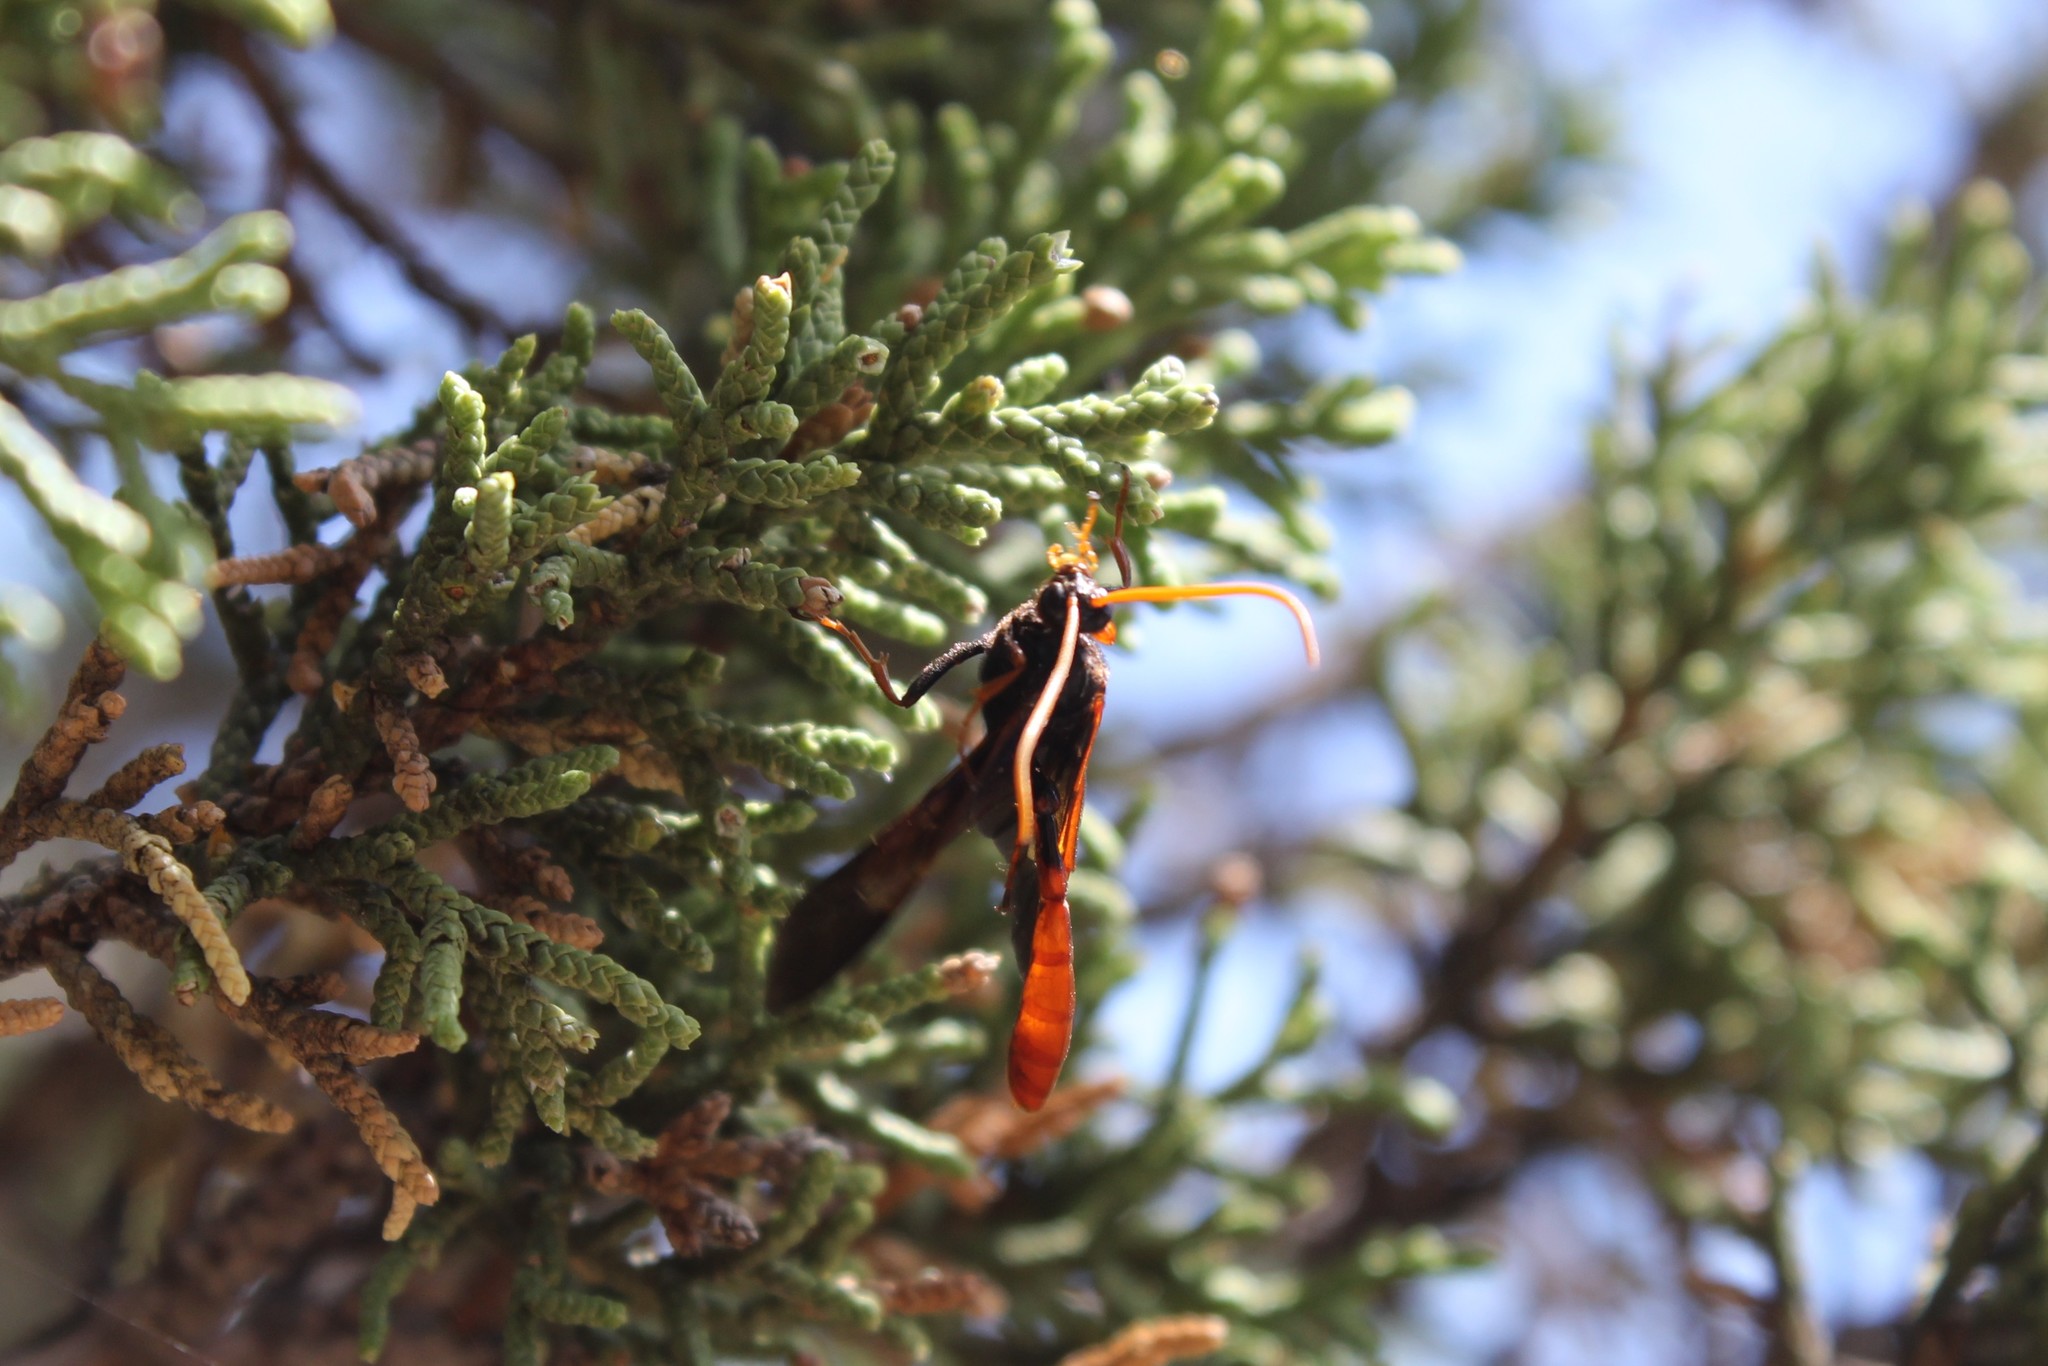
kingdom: Animalia
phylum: Arthropoda
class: Insecta
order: Hymenoptera
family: Ichneumonidae
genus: Thyreodon
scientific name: Thyreodon ornatipennis
